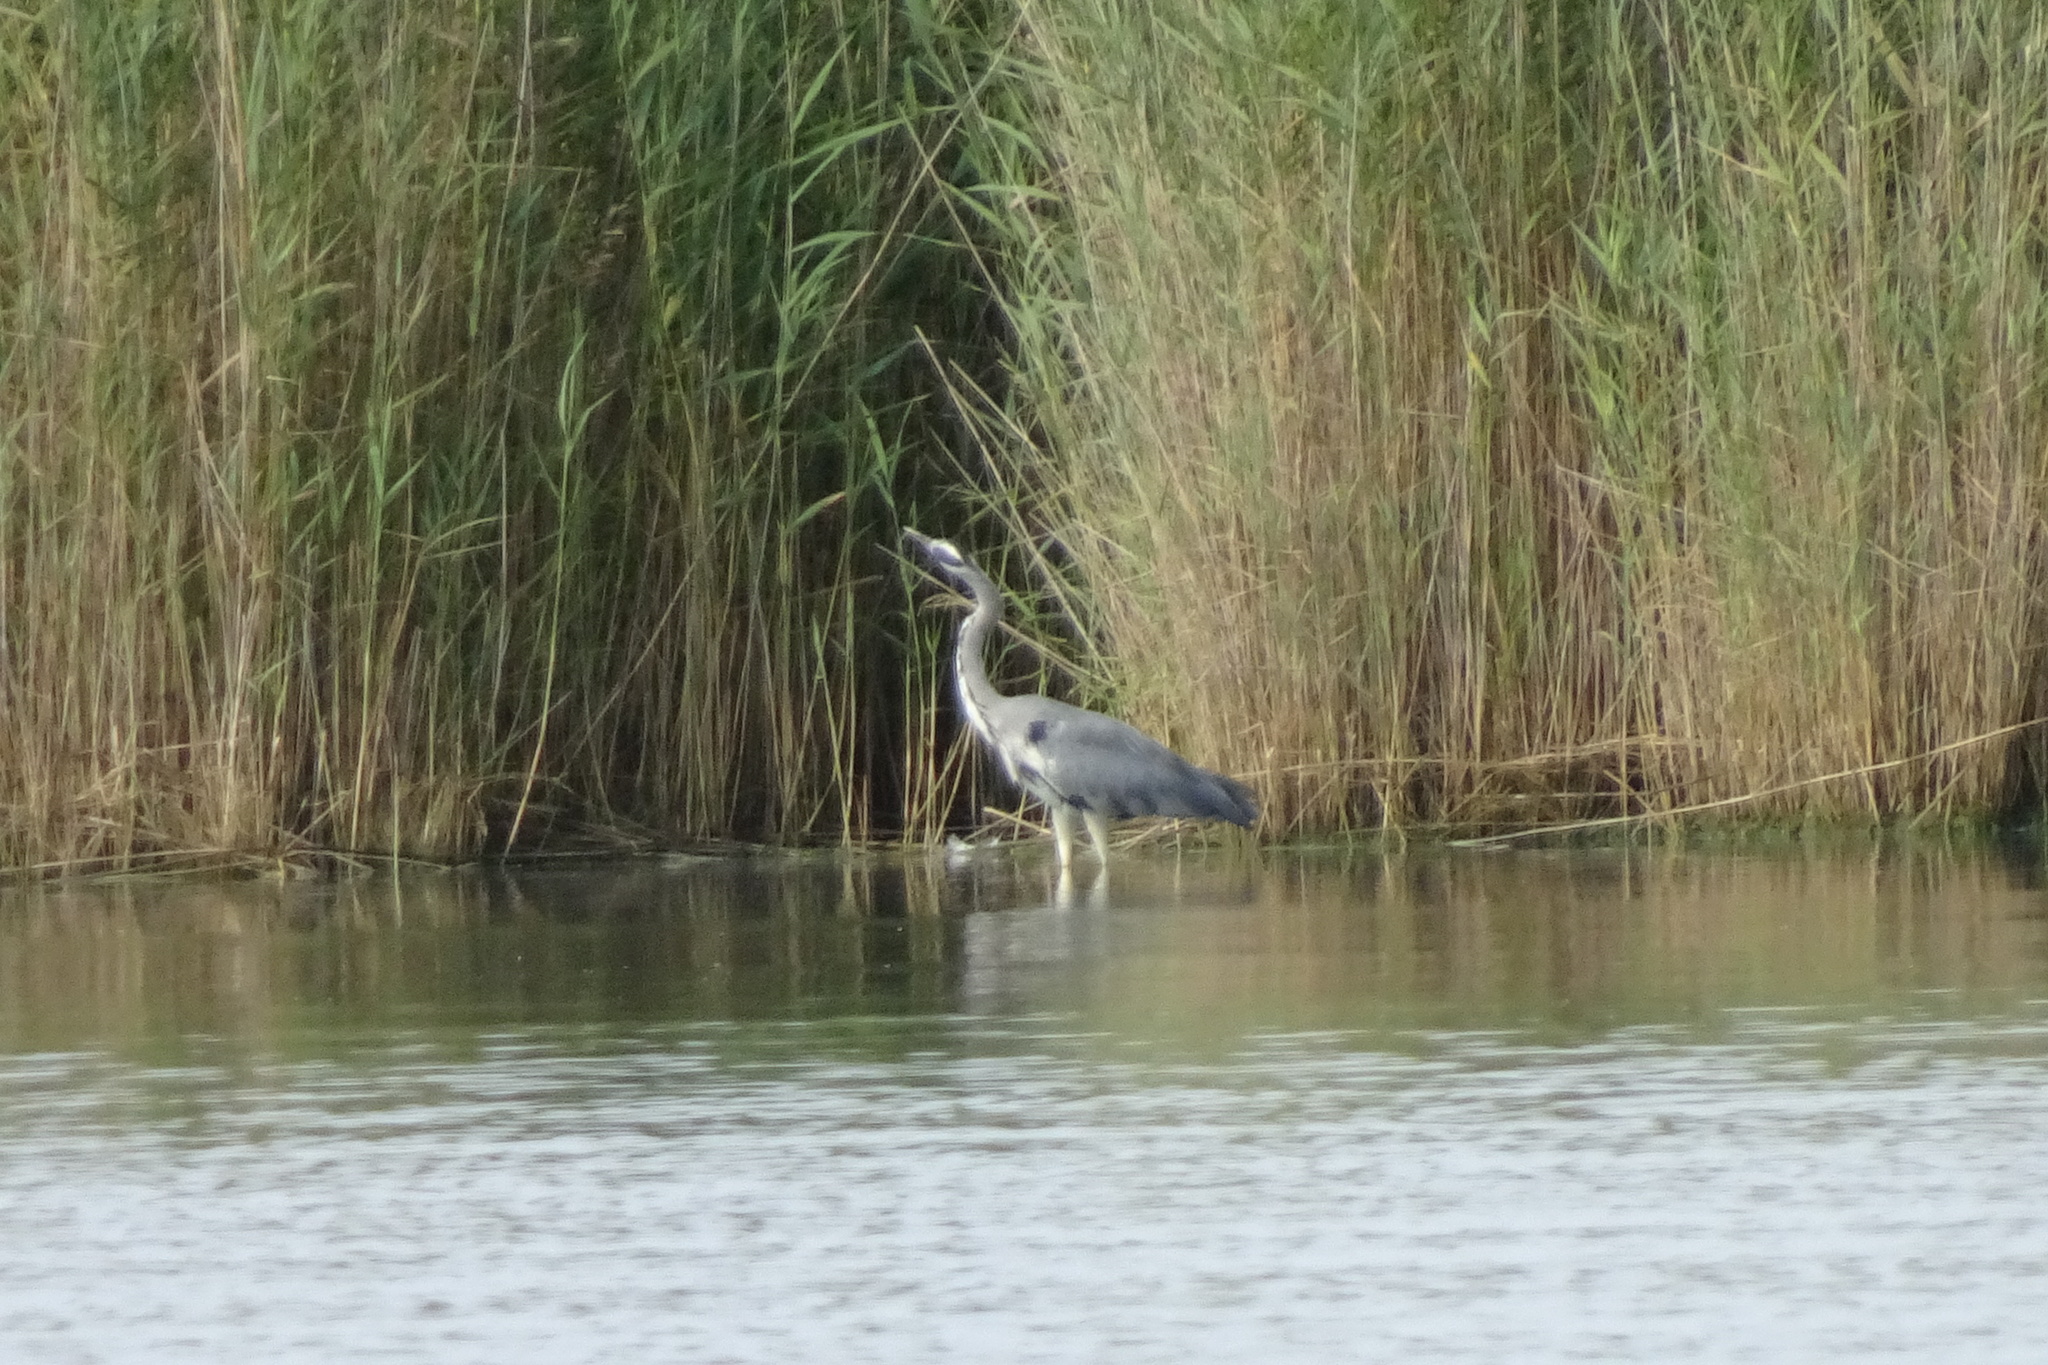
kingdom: Animalia
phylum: Chordata
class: Aves
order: Pelecaniformes
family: Ardeidae
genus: Ardea
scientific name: Ardea cinerea
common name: Grey heron
